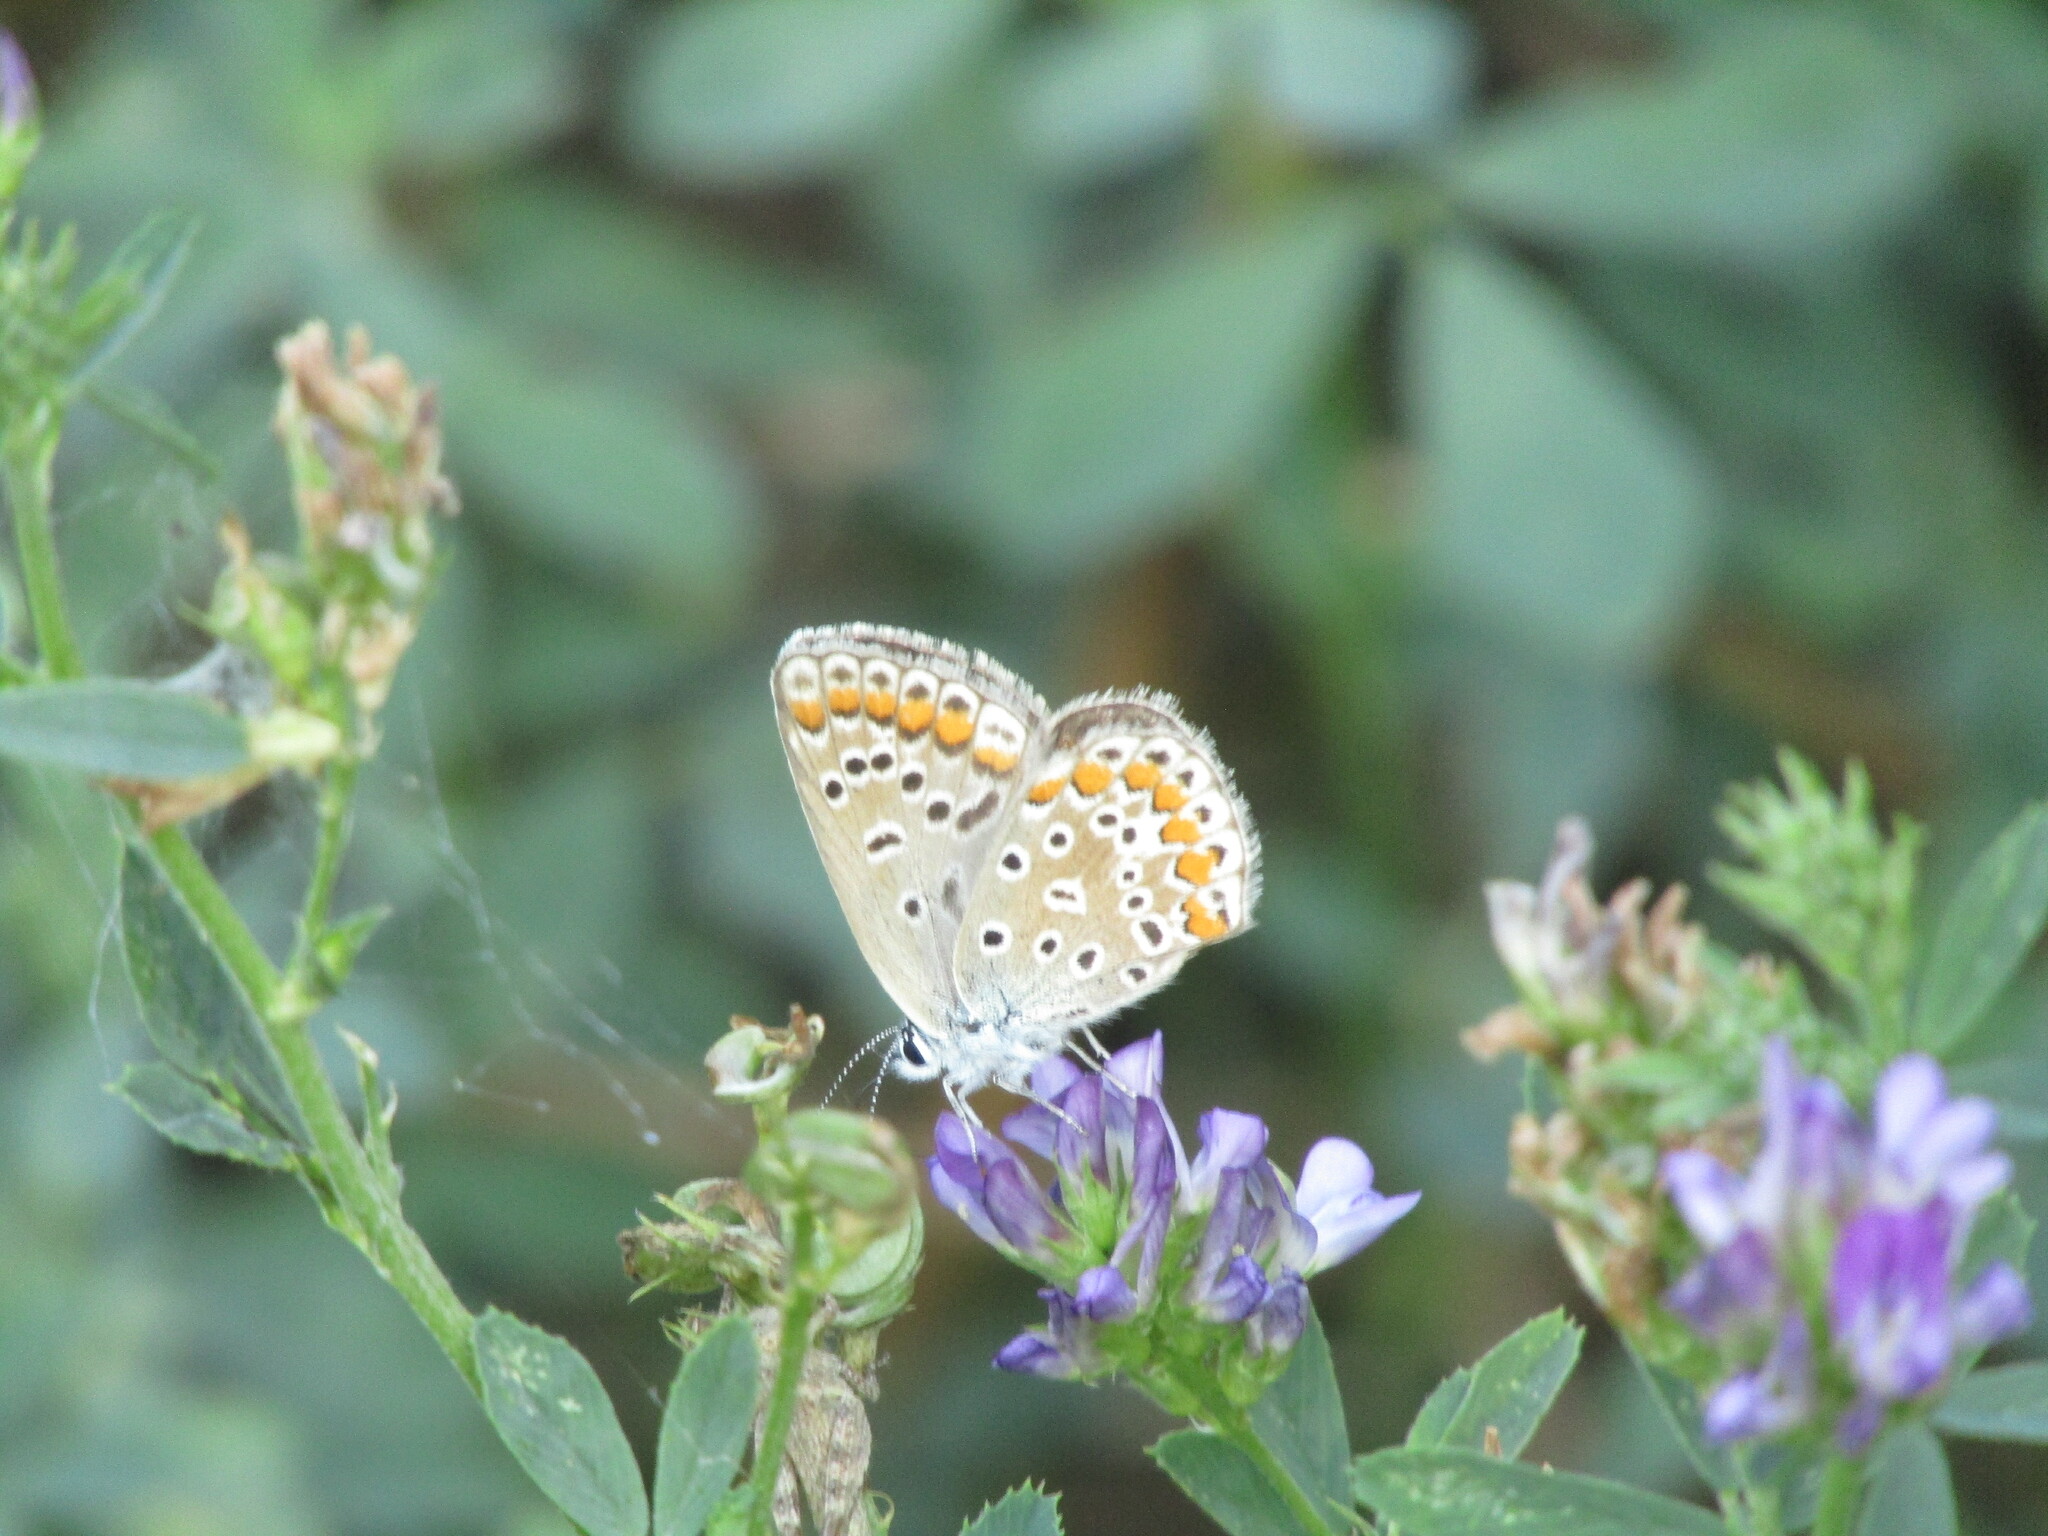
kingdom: Animalia
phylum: Arthropoda
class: Insecta
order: Lepidoptera
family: Lycaenidae
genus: Polyommatus
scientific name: Polyommatus icarus
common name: Common blue
